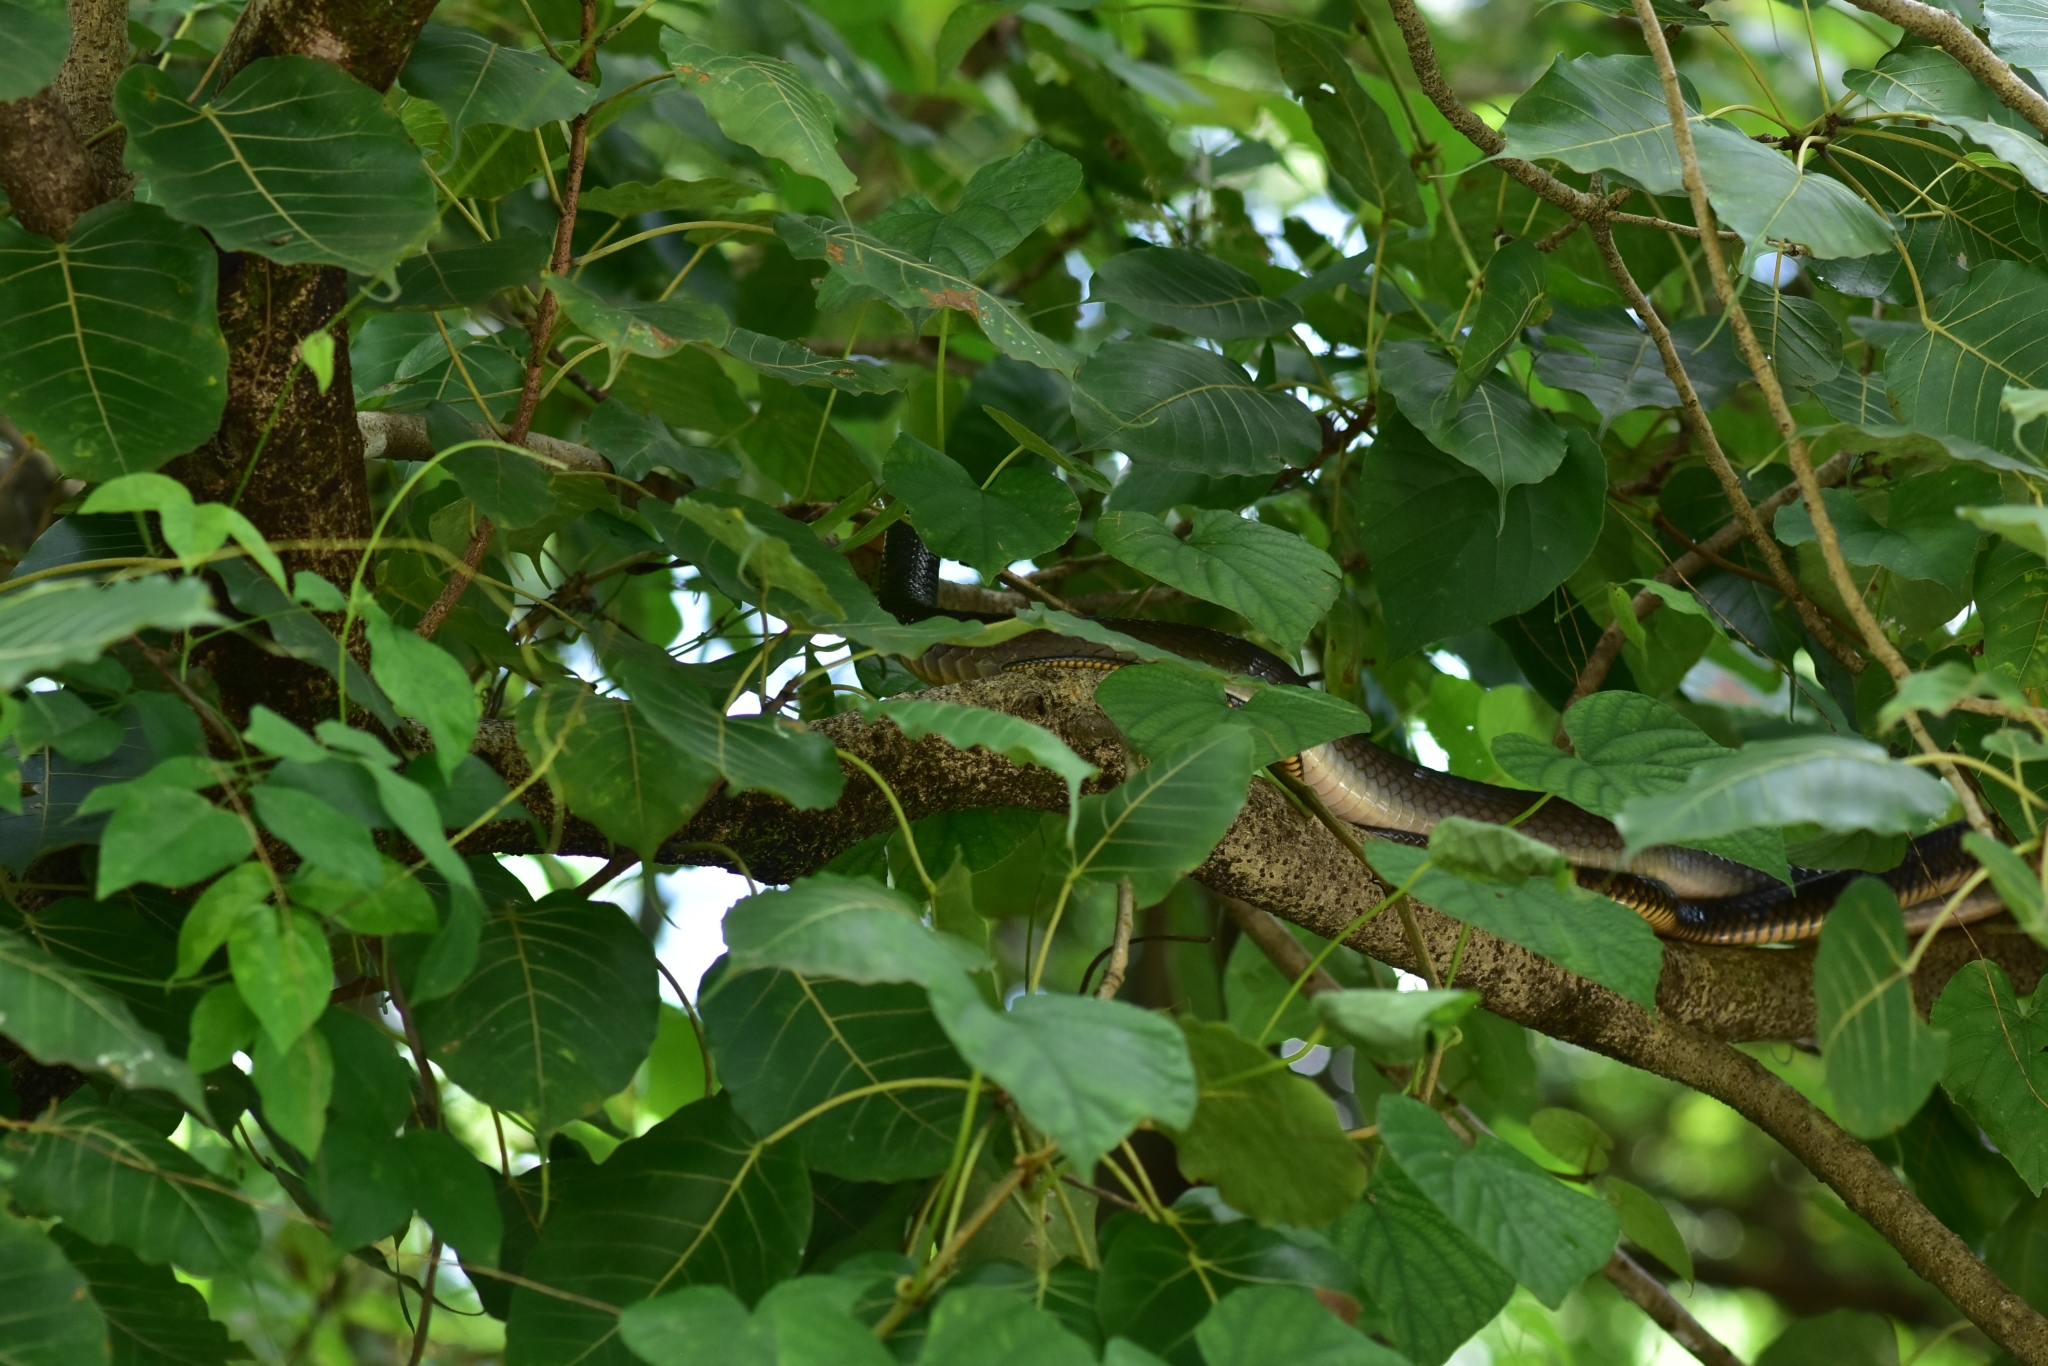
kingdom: Animalia
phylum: Chordata
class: Squamata
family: Colubridae
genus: Ptyas
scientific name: Ptyas mucosa
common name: Oriental ratsnake
